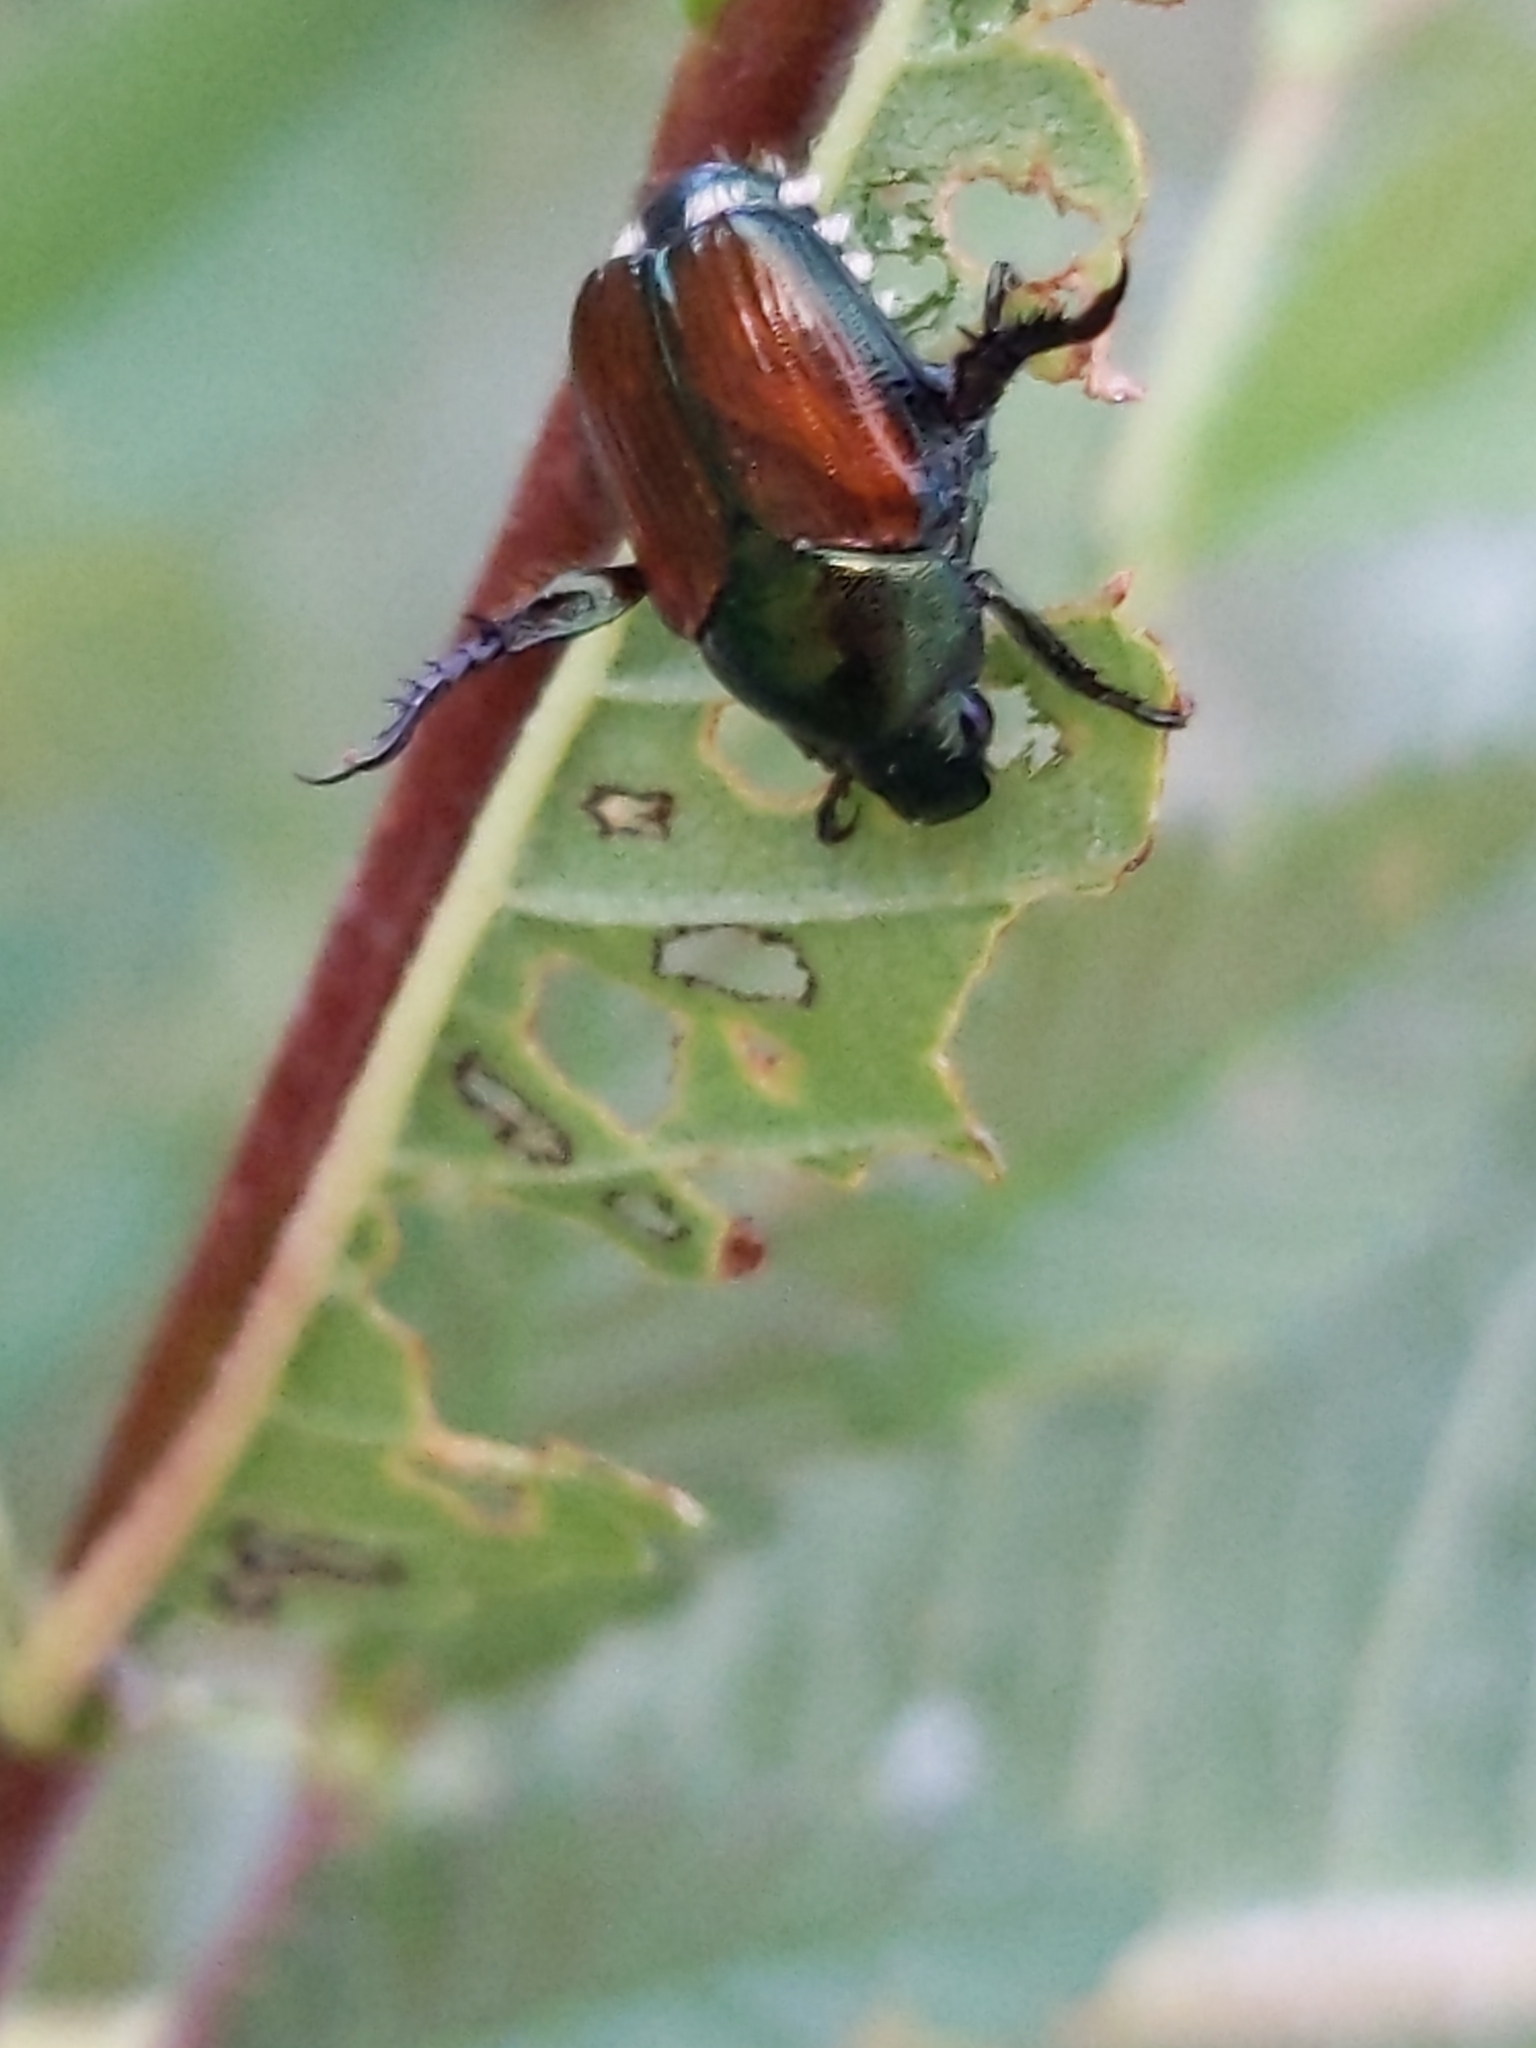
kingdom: Animalia
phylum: Arthropoda
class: Insecta
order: Coleoptera
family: Scarabaeidae
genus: Popillia
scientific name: Popillia japonica
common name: Japanese beetle
